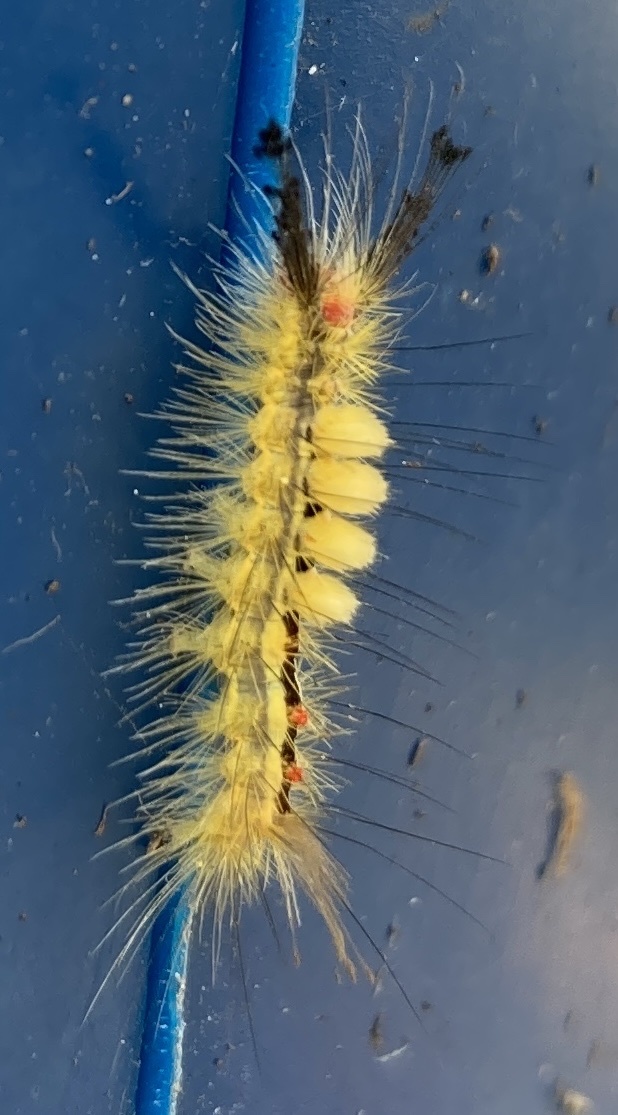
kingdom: Animalia
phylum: Arthropoda
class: Insecta
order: Lepidoptera
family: Erebidae
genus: Orgyia
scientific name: Orgyia leucostigma
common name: White-marked tussock moth
